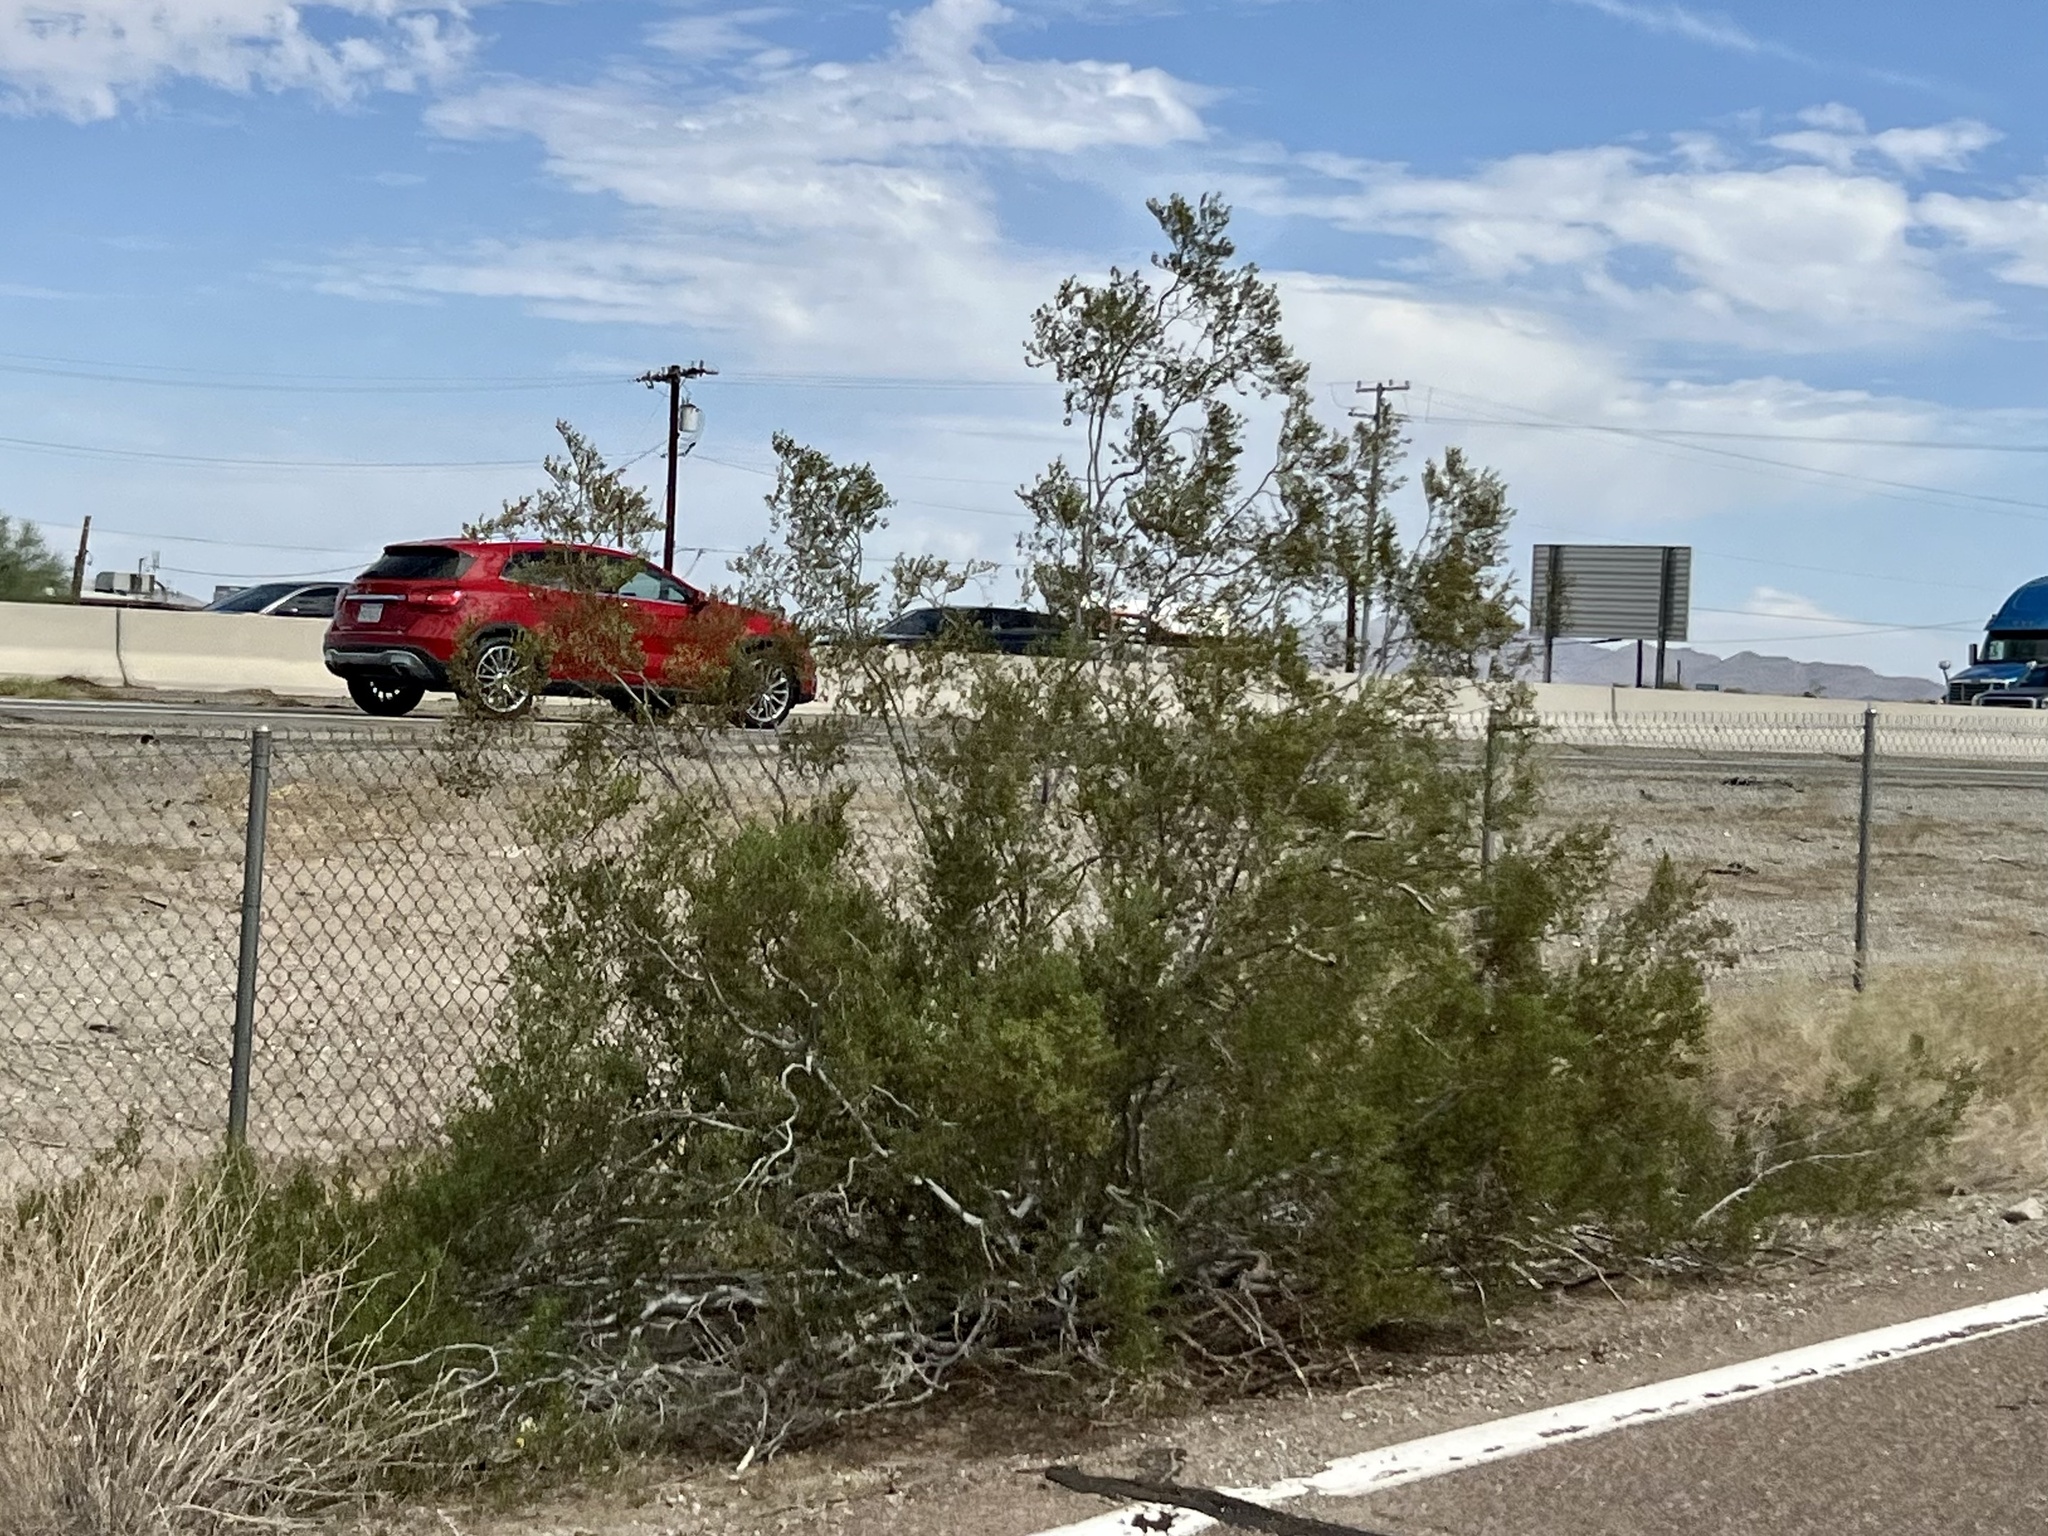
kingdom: Plantae
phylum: Tracheophyta
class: Magnoliopsida
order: Zygophyllales
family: Zygophyllaceae
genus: Larrea
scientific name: Larrea tridentata
